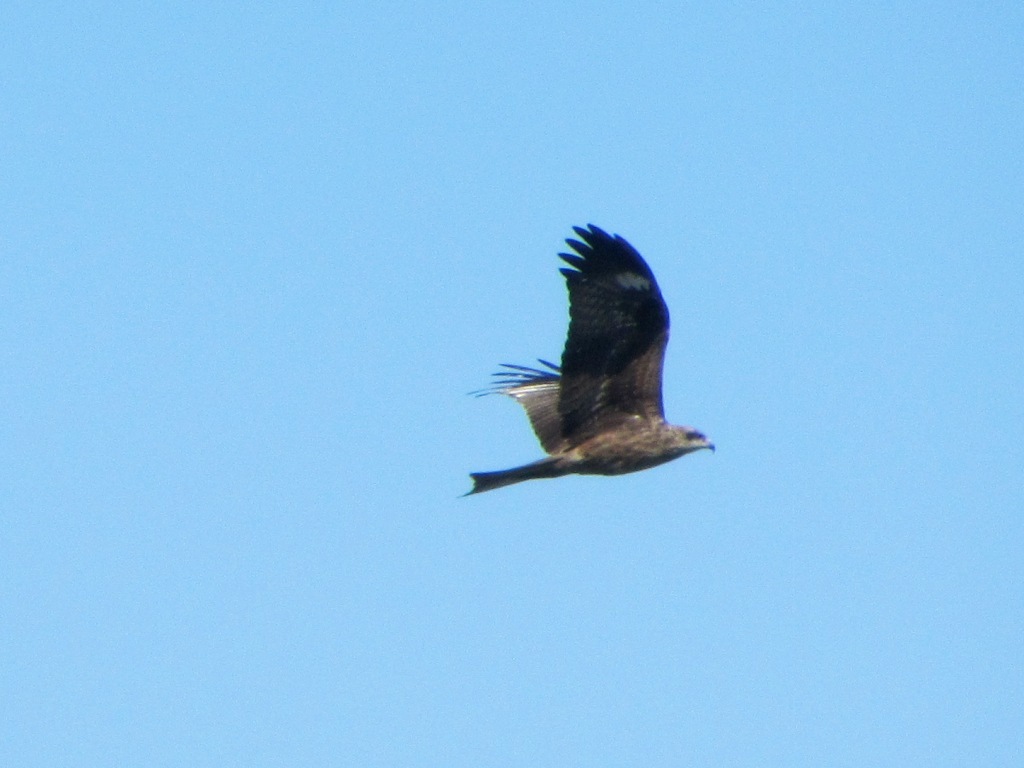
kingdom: Animalia
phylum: Chordata
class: Aves
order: Accipitriformes
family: Accipitridae
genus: Milvus
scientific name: Milvus migrans
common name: Black kite
